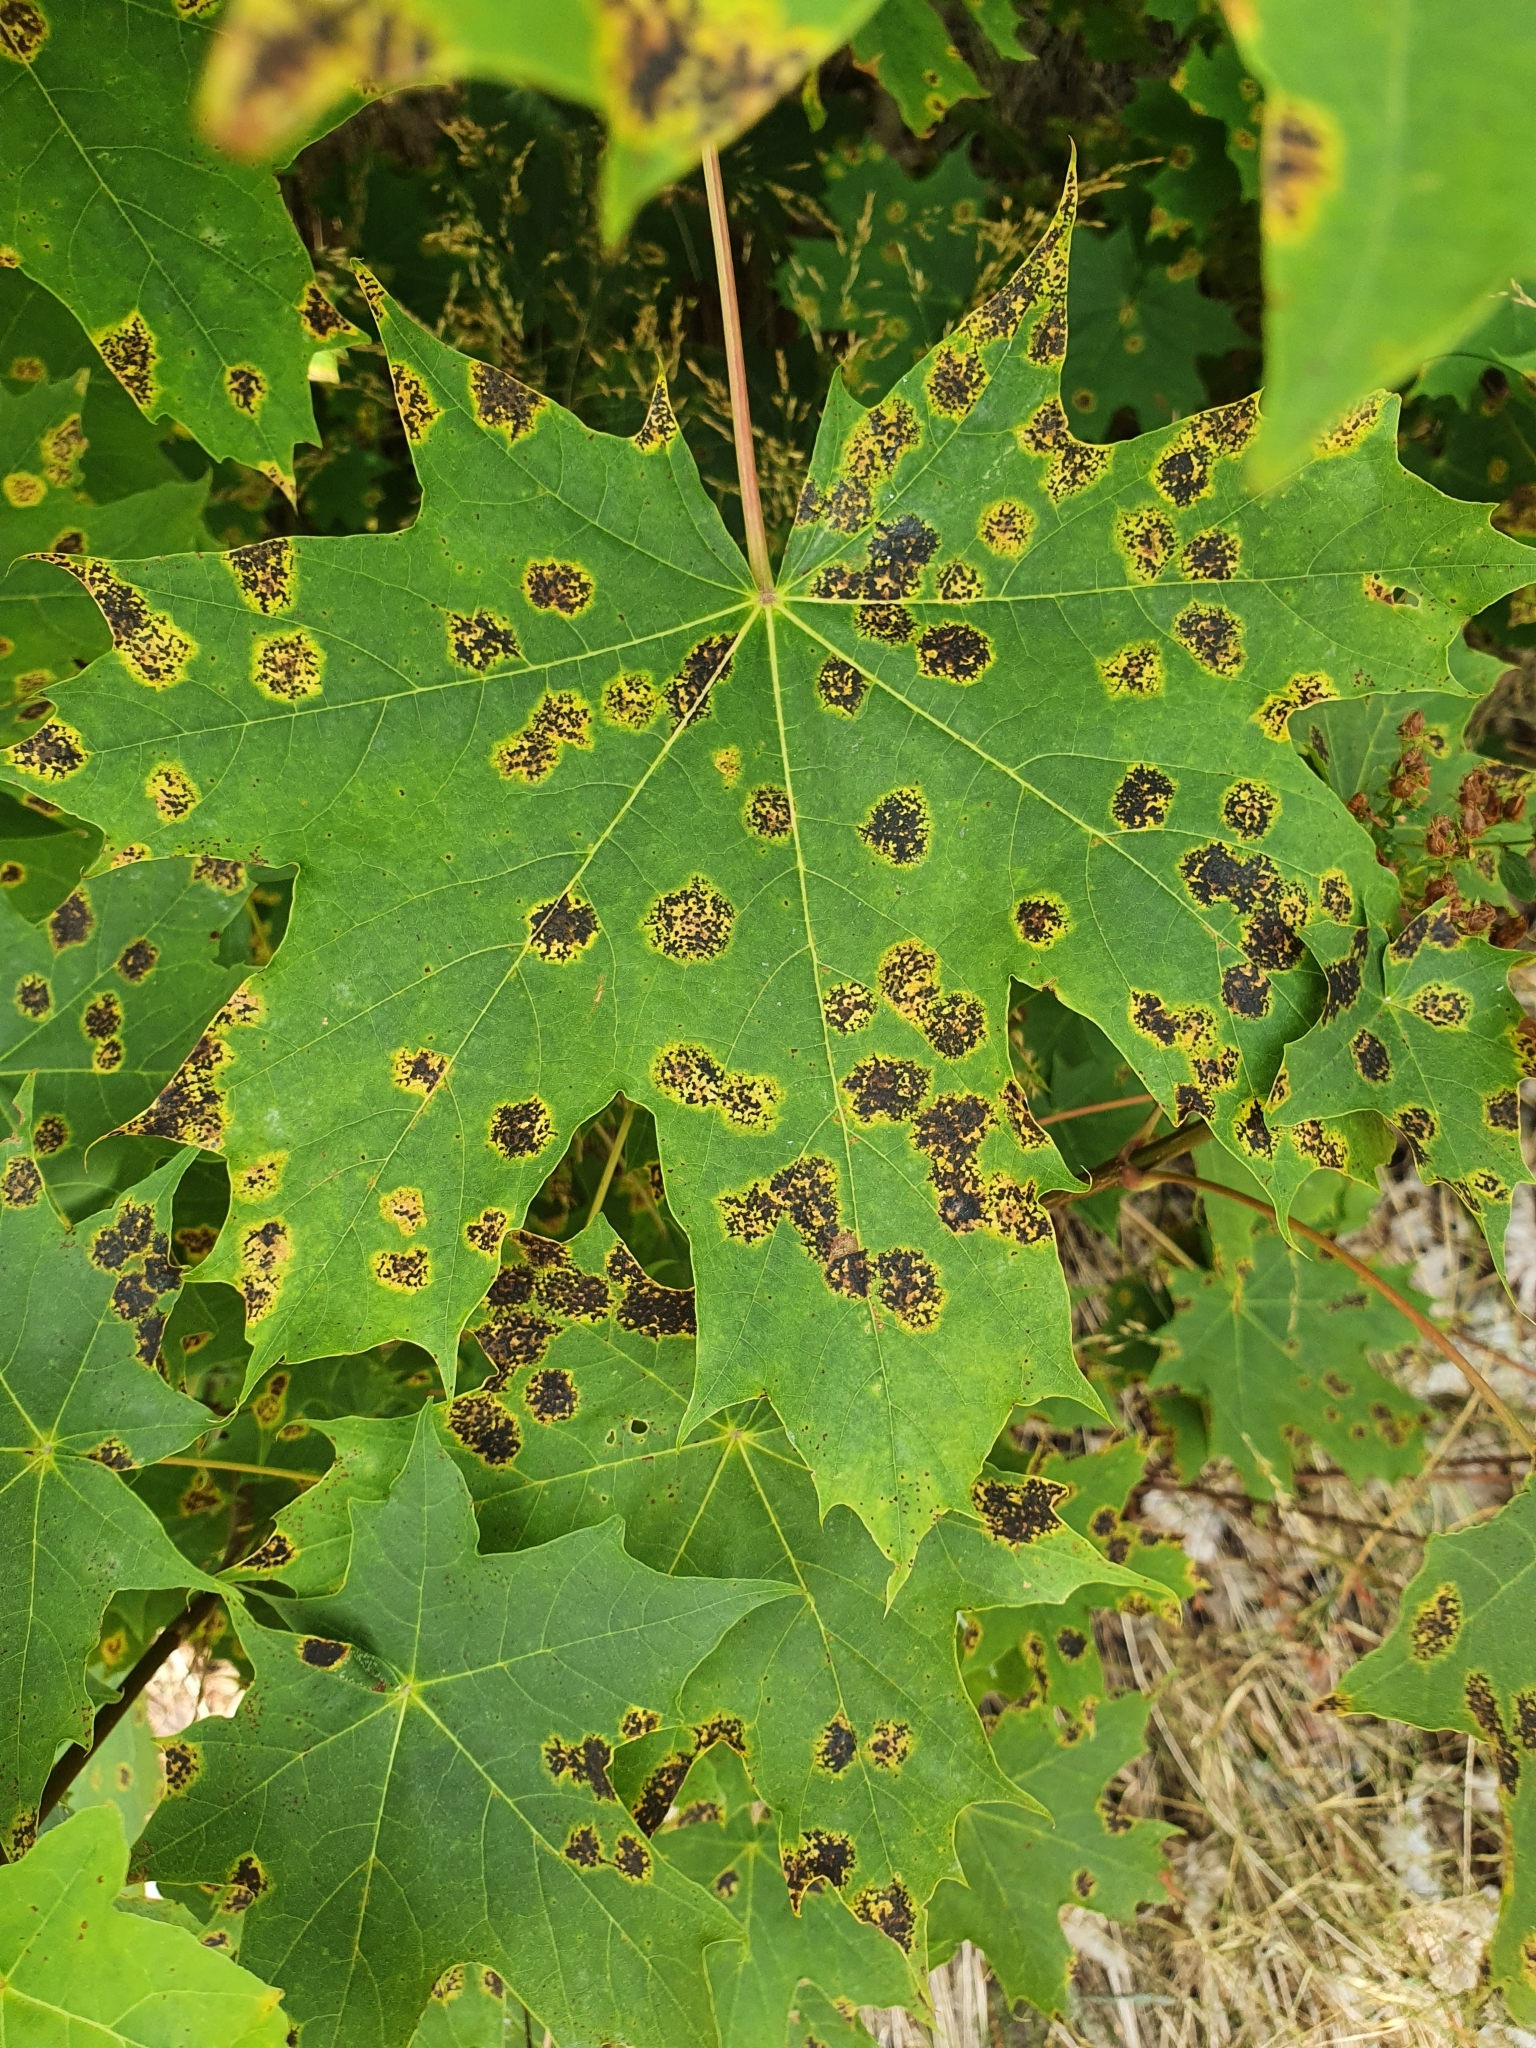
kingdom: Fungi
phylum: Ascomycota
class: Leotiomycetes
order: Rhytismatales
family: Rhytismataceae
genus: Rhytisma
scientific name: Rhytisma acerinum
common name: European tar spot
